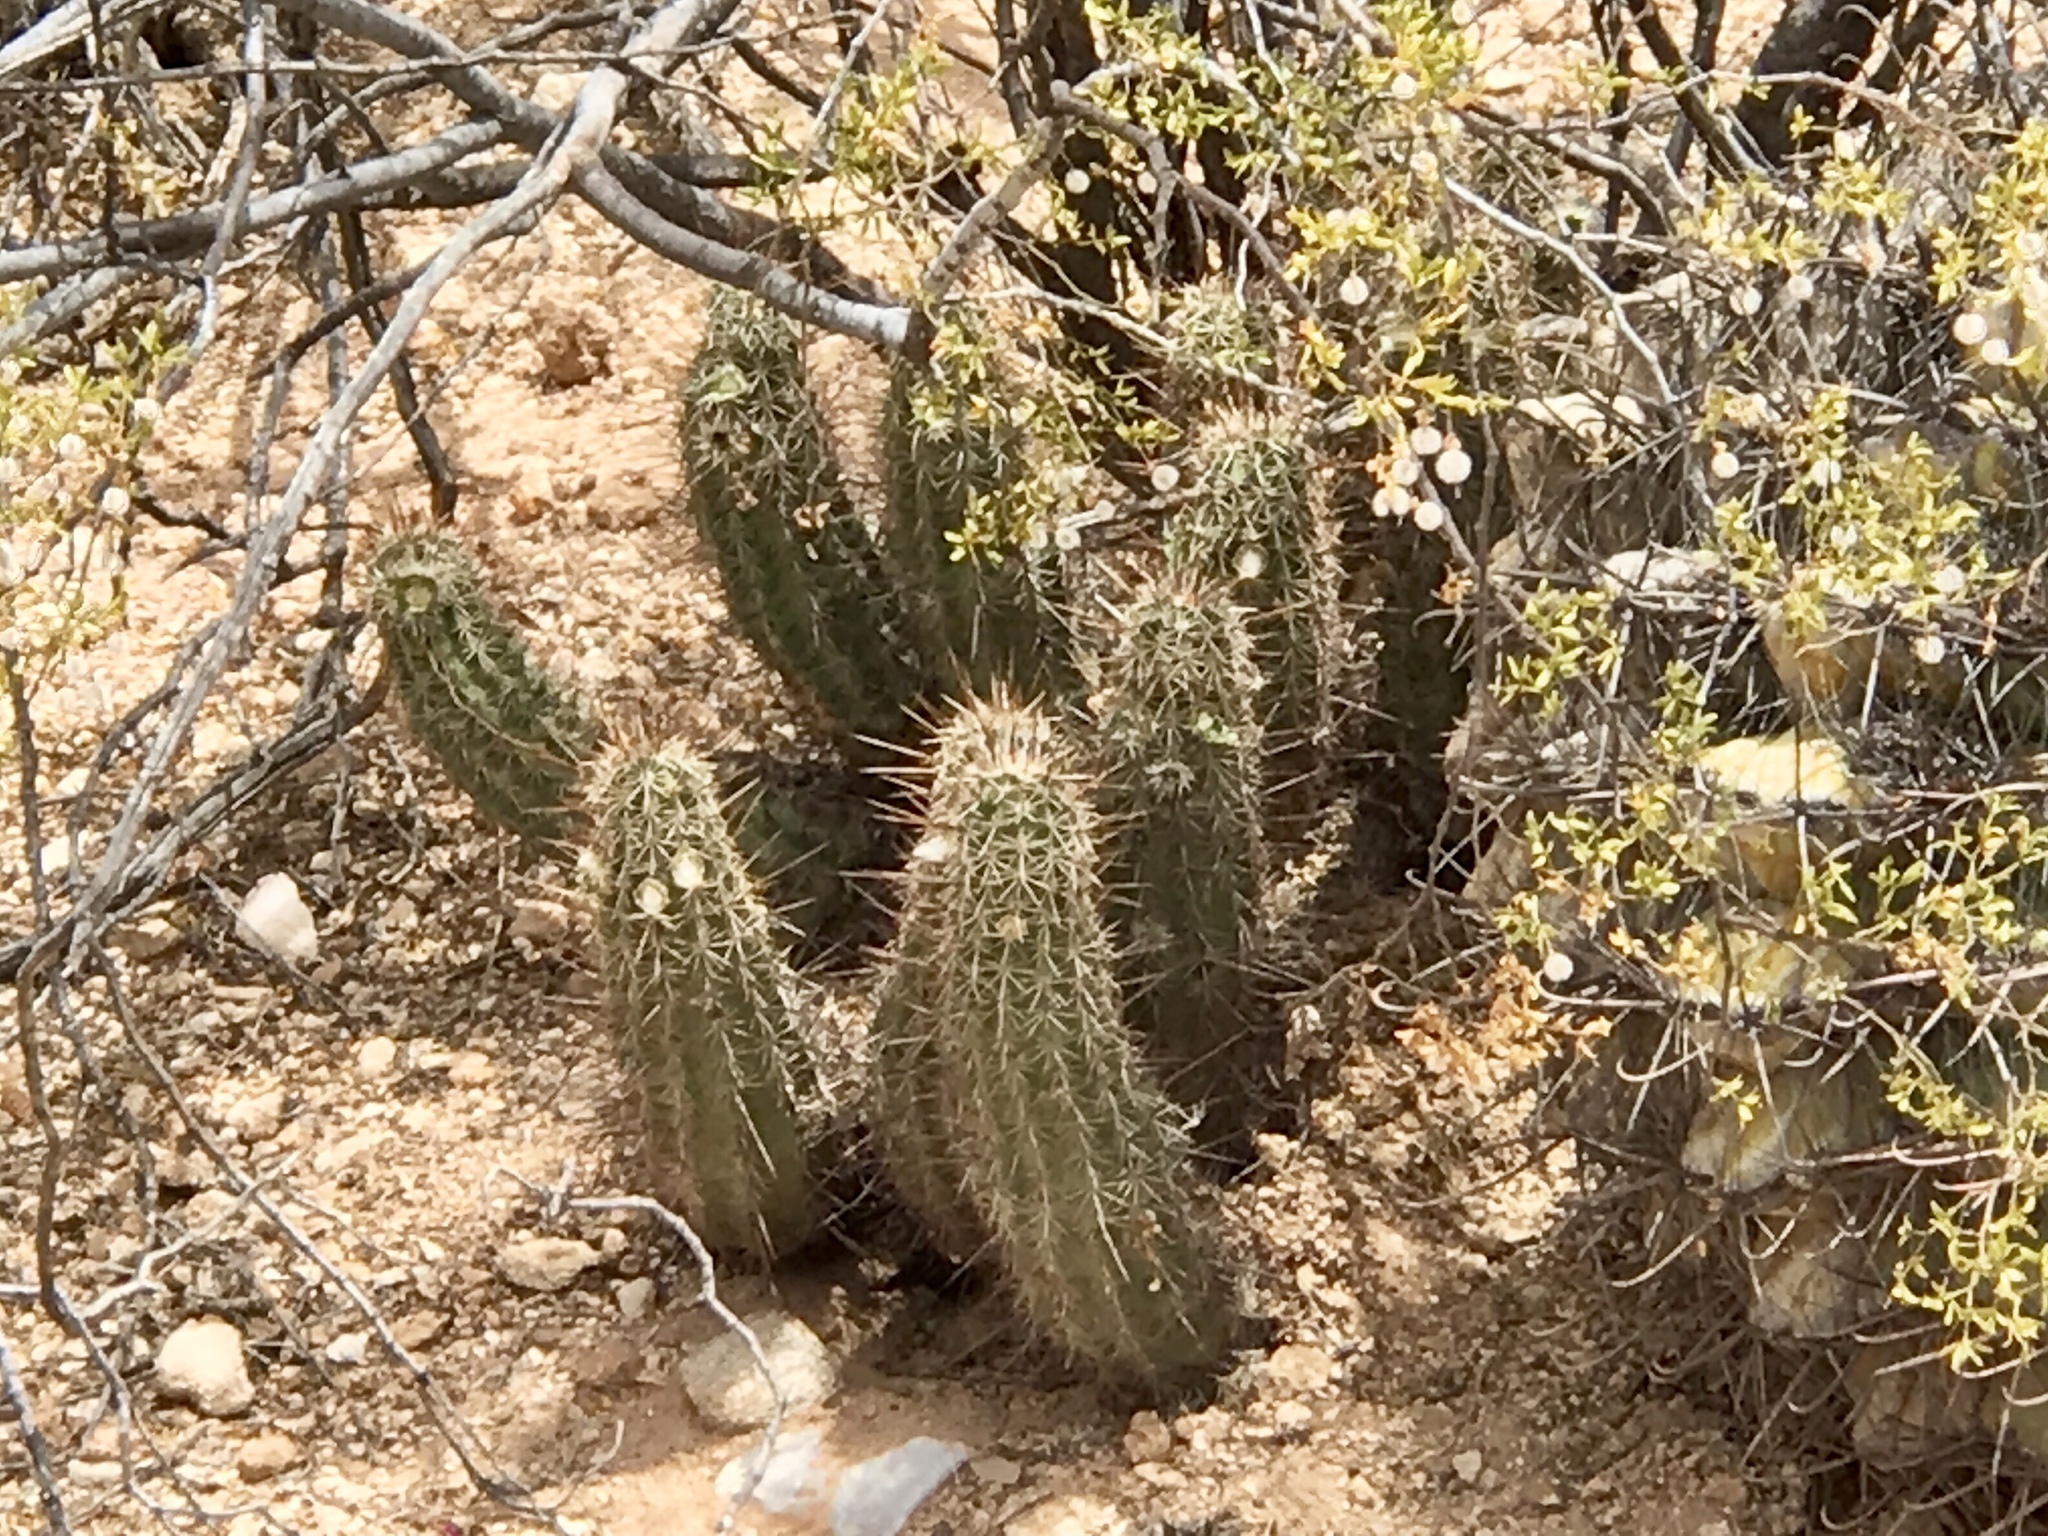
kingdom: Plantae
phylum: Tracheophyta
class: Magnoliopsida
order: Caryophyllales
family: Cactaceae
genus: Echinocereus
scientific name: Echinocereus fasciculatus
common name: Bundle hedgehog
